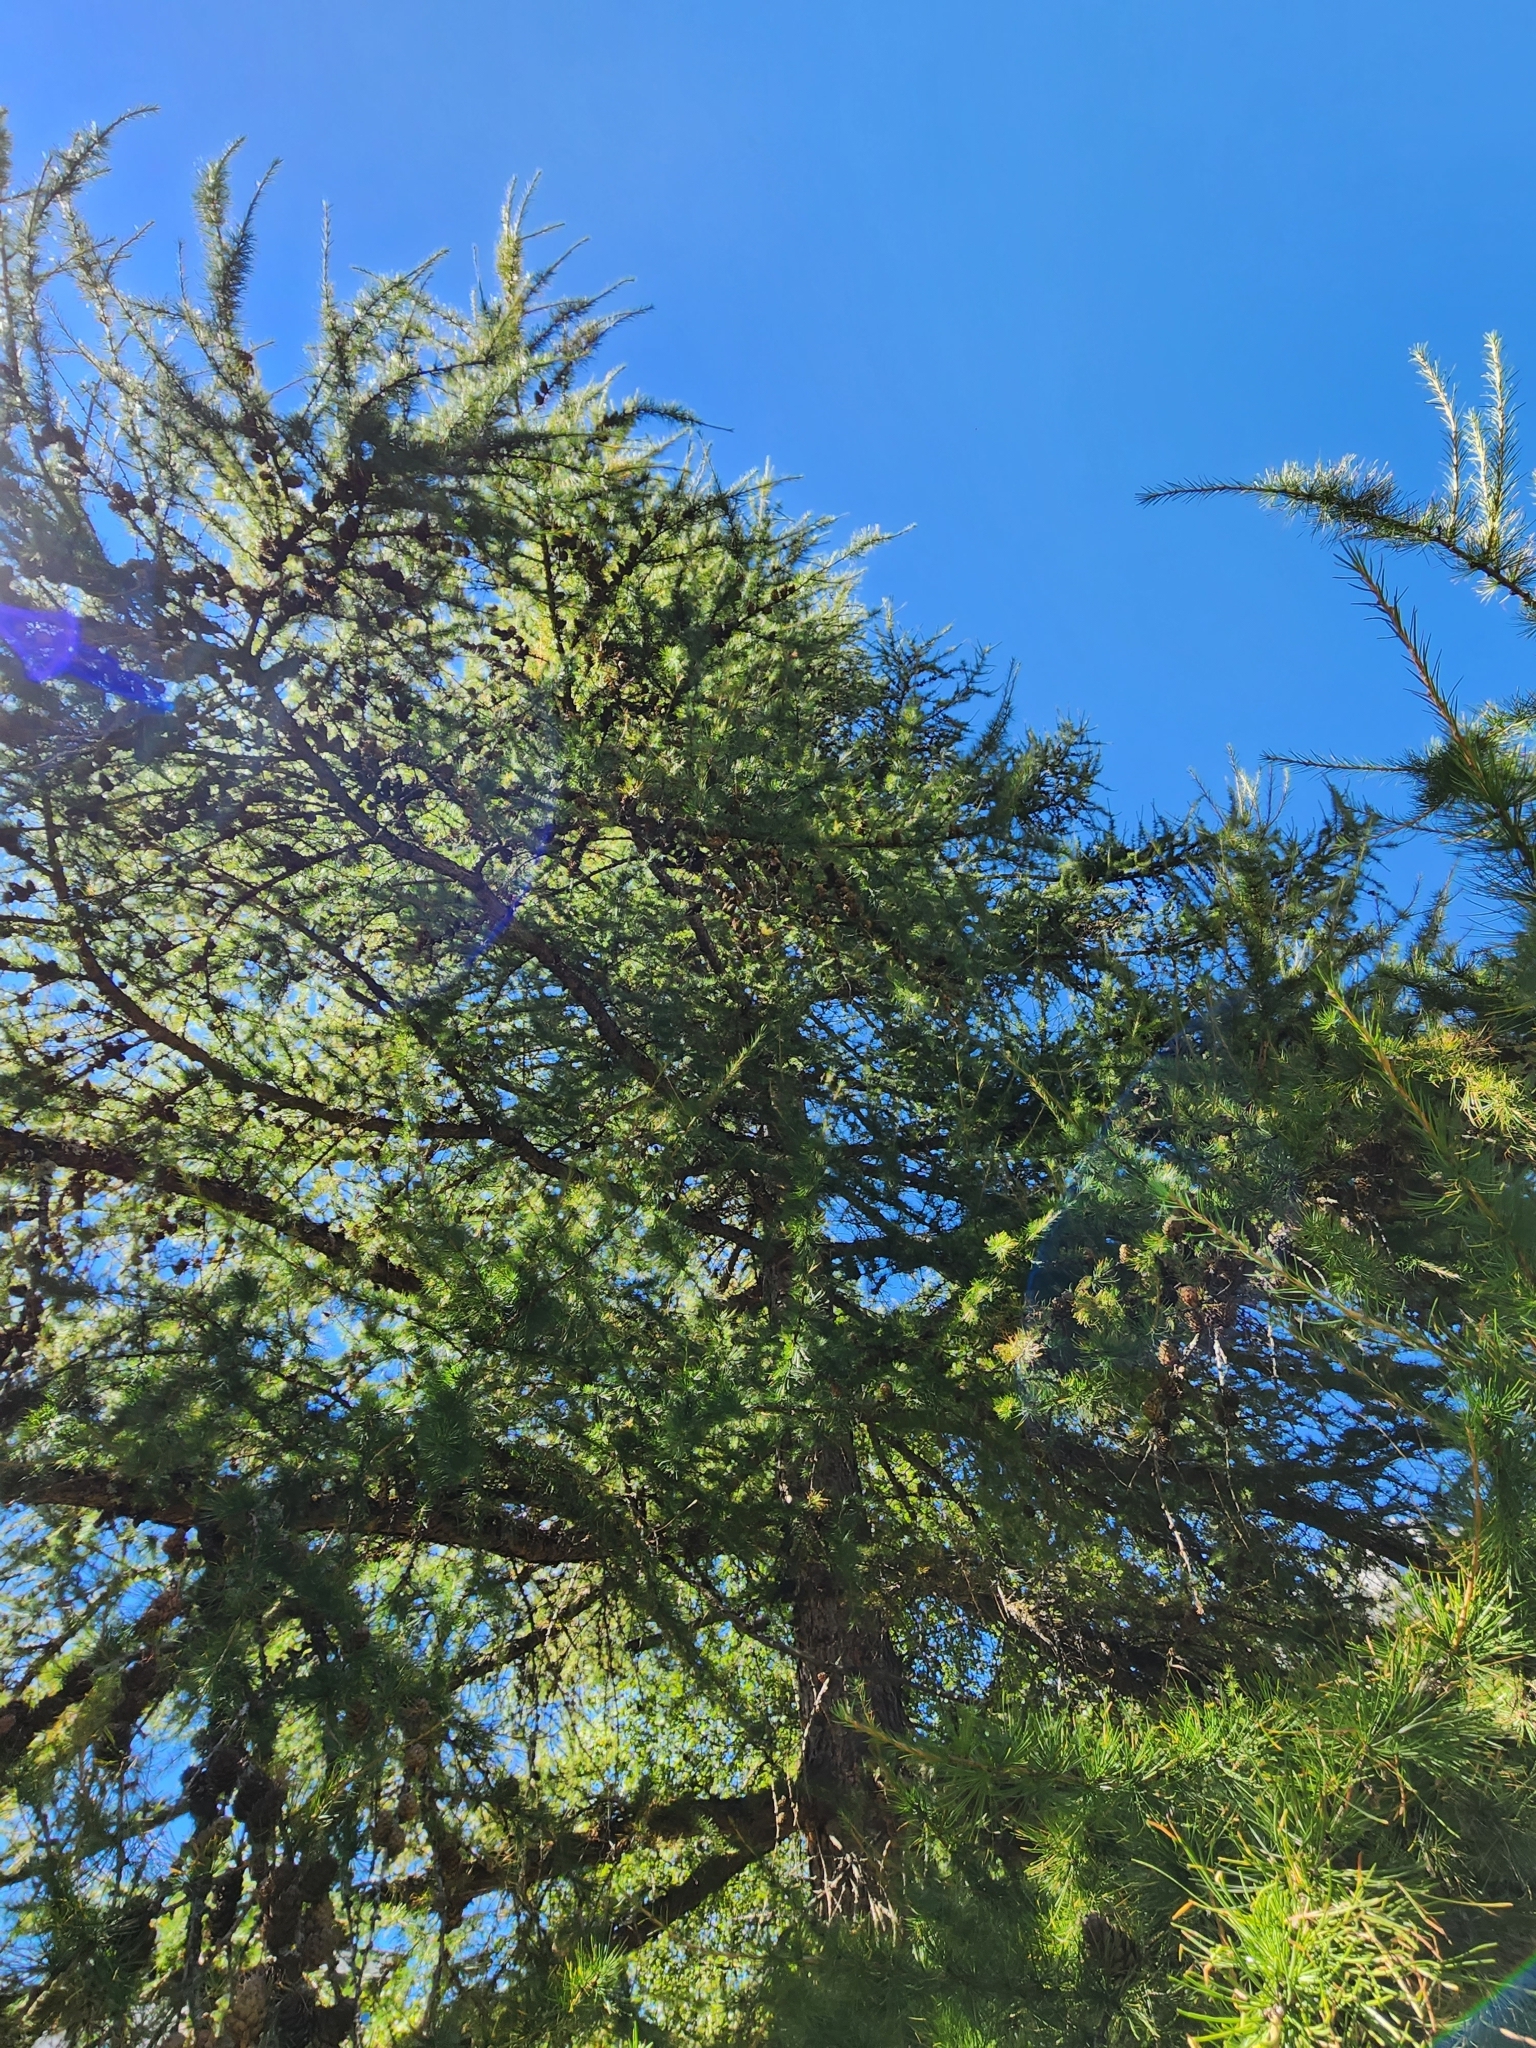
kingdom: Plantae
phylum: Tracheophyta
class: Pinopsida
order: Pinales
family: Pinaceae
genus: Larix
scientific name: Larix decidua
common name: European larch
